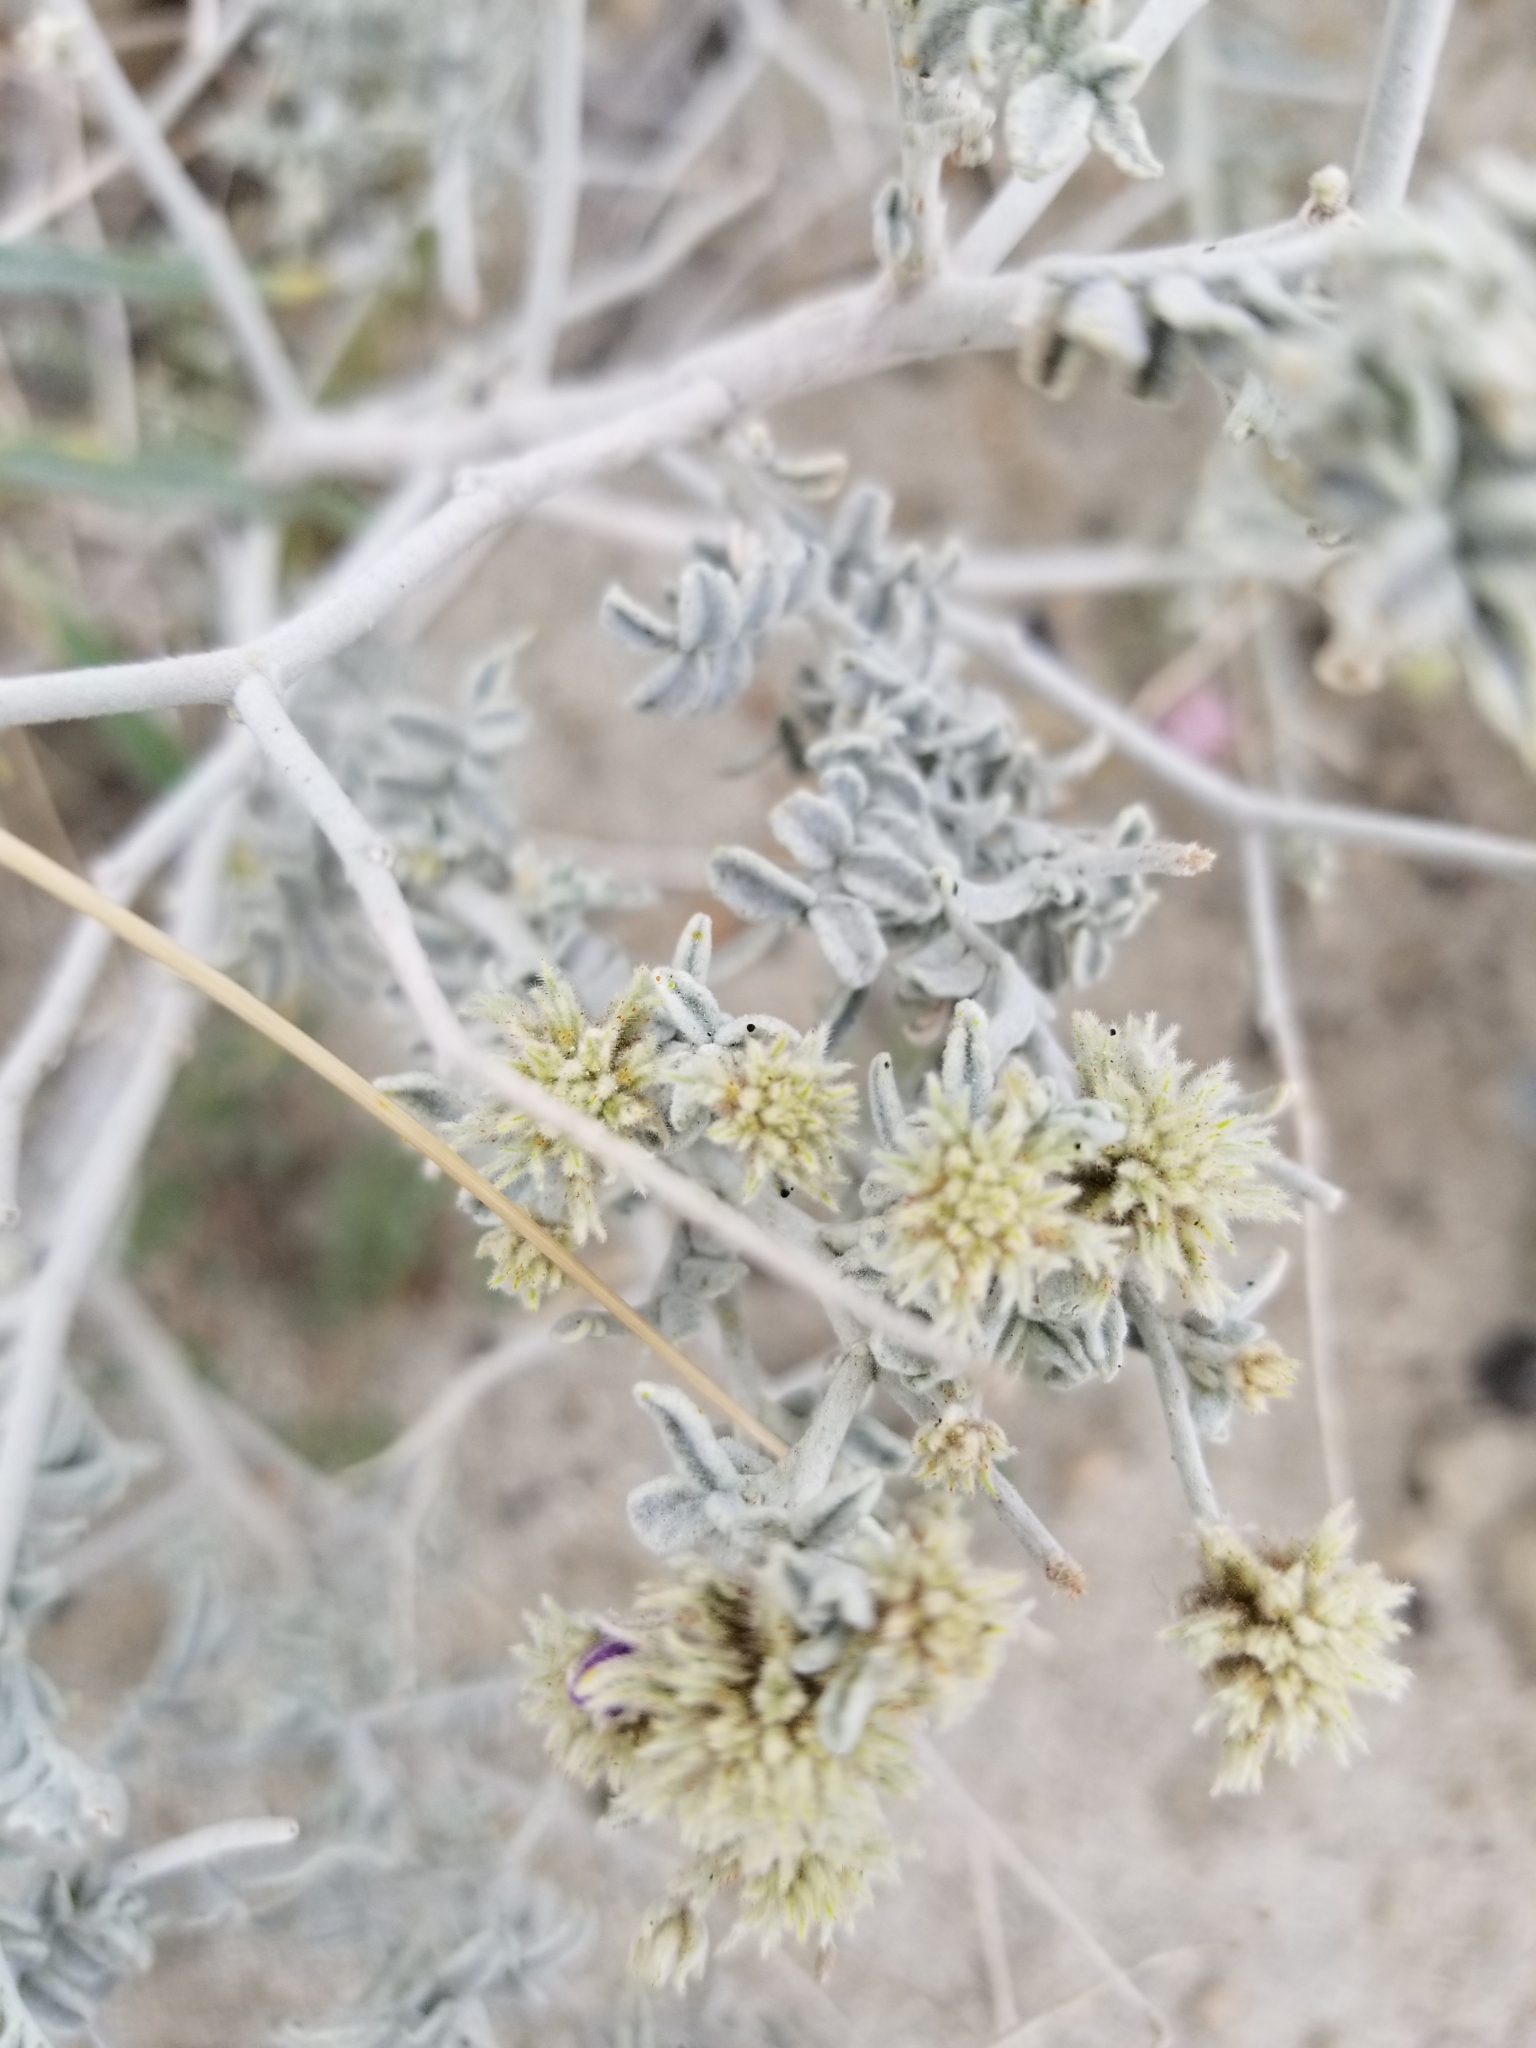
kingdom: Plantae
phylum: Tracheophyta
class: Magnoliopsida
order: Fabales
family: Fabaceae
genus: Psorothamnus
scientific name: Psorothamnus emoryi
